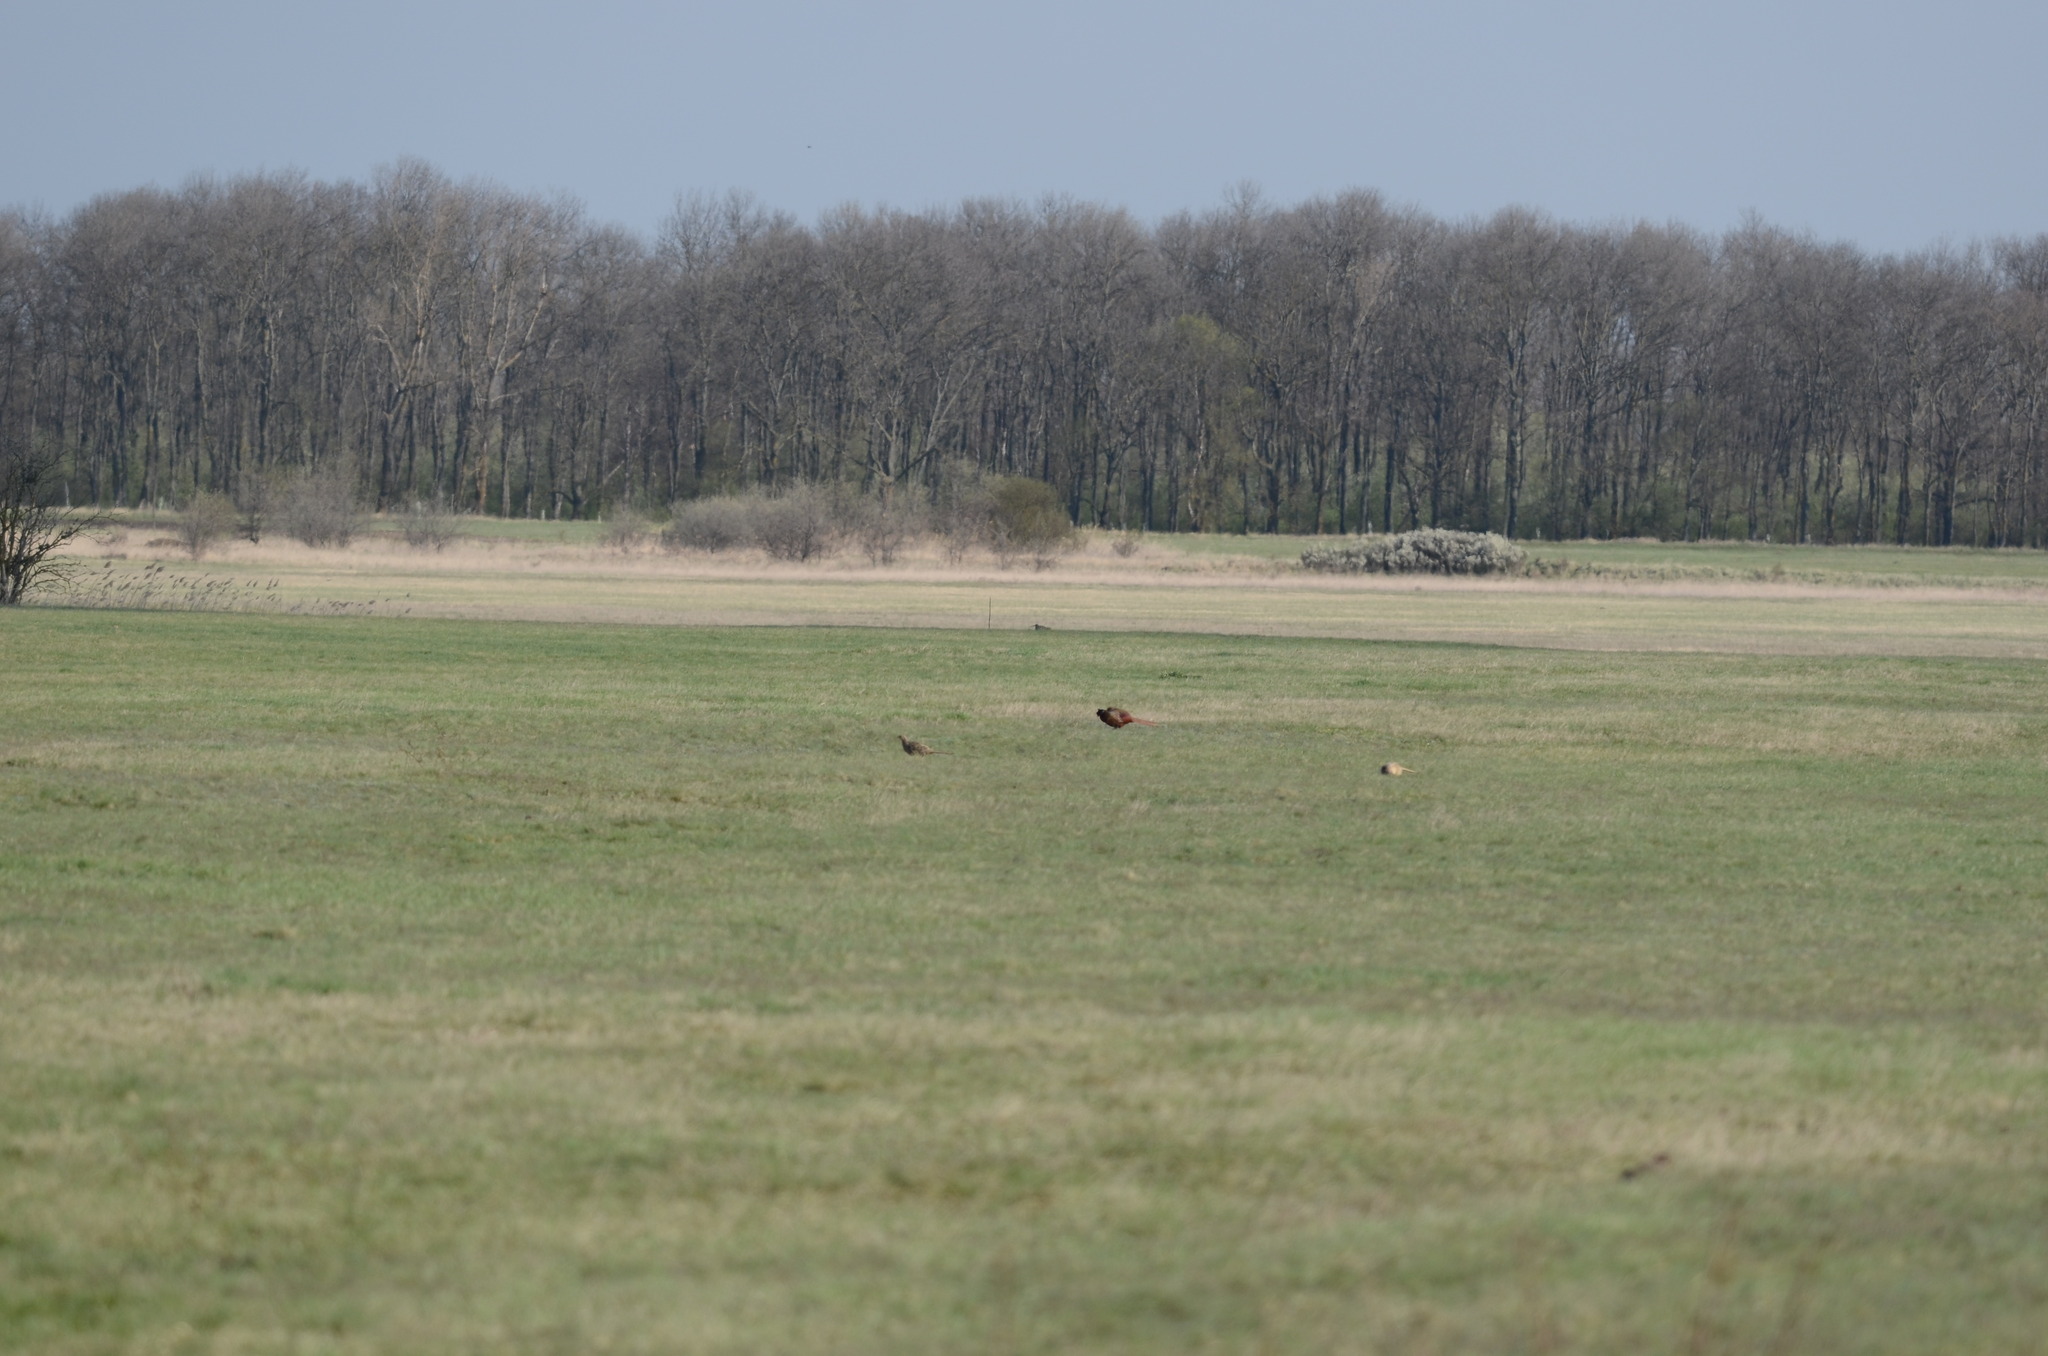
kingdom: Animalia
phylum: Chordata
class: Aves
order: Galliformes
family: Phasianidae
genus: Phasianus
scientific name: Phasianus colchicus
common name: Common pheasant
